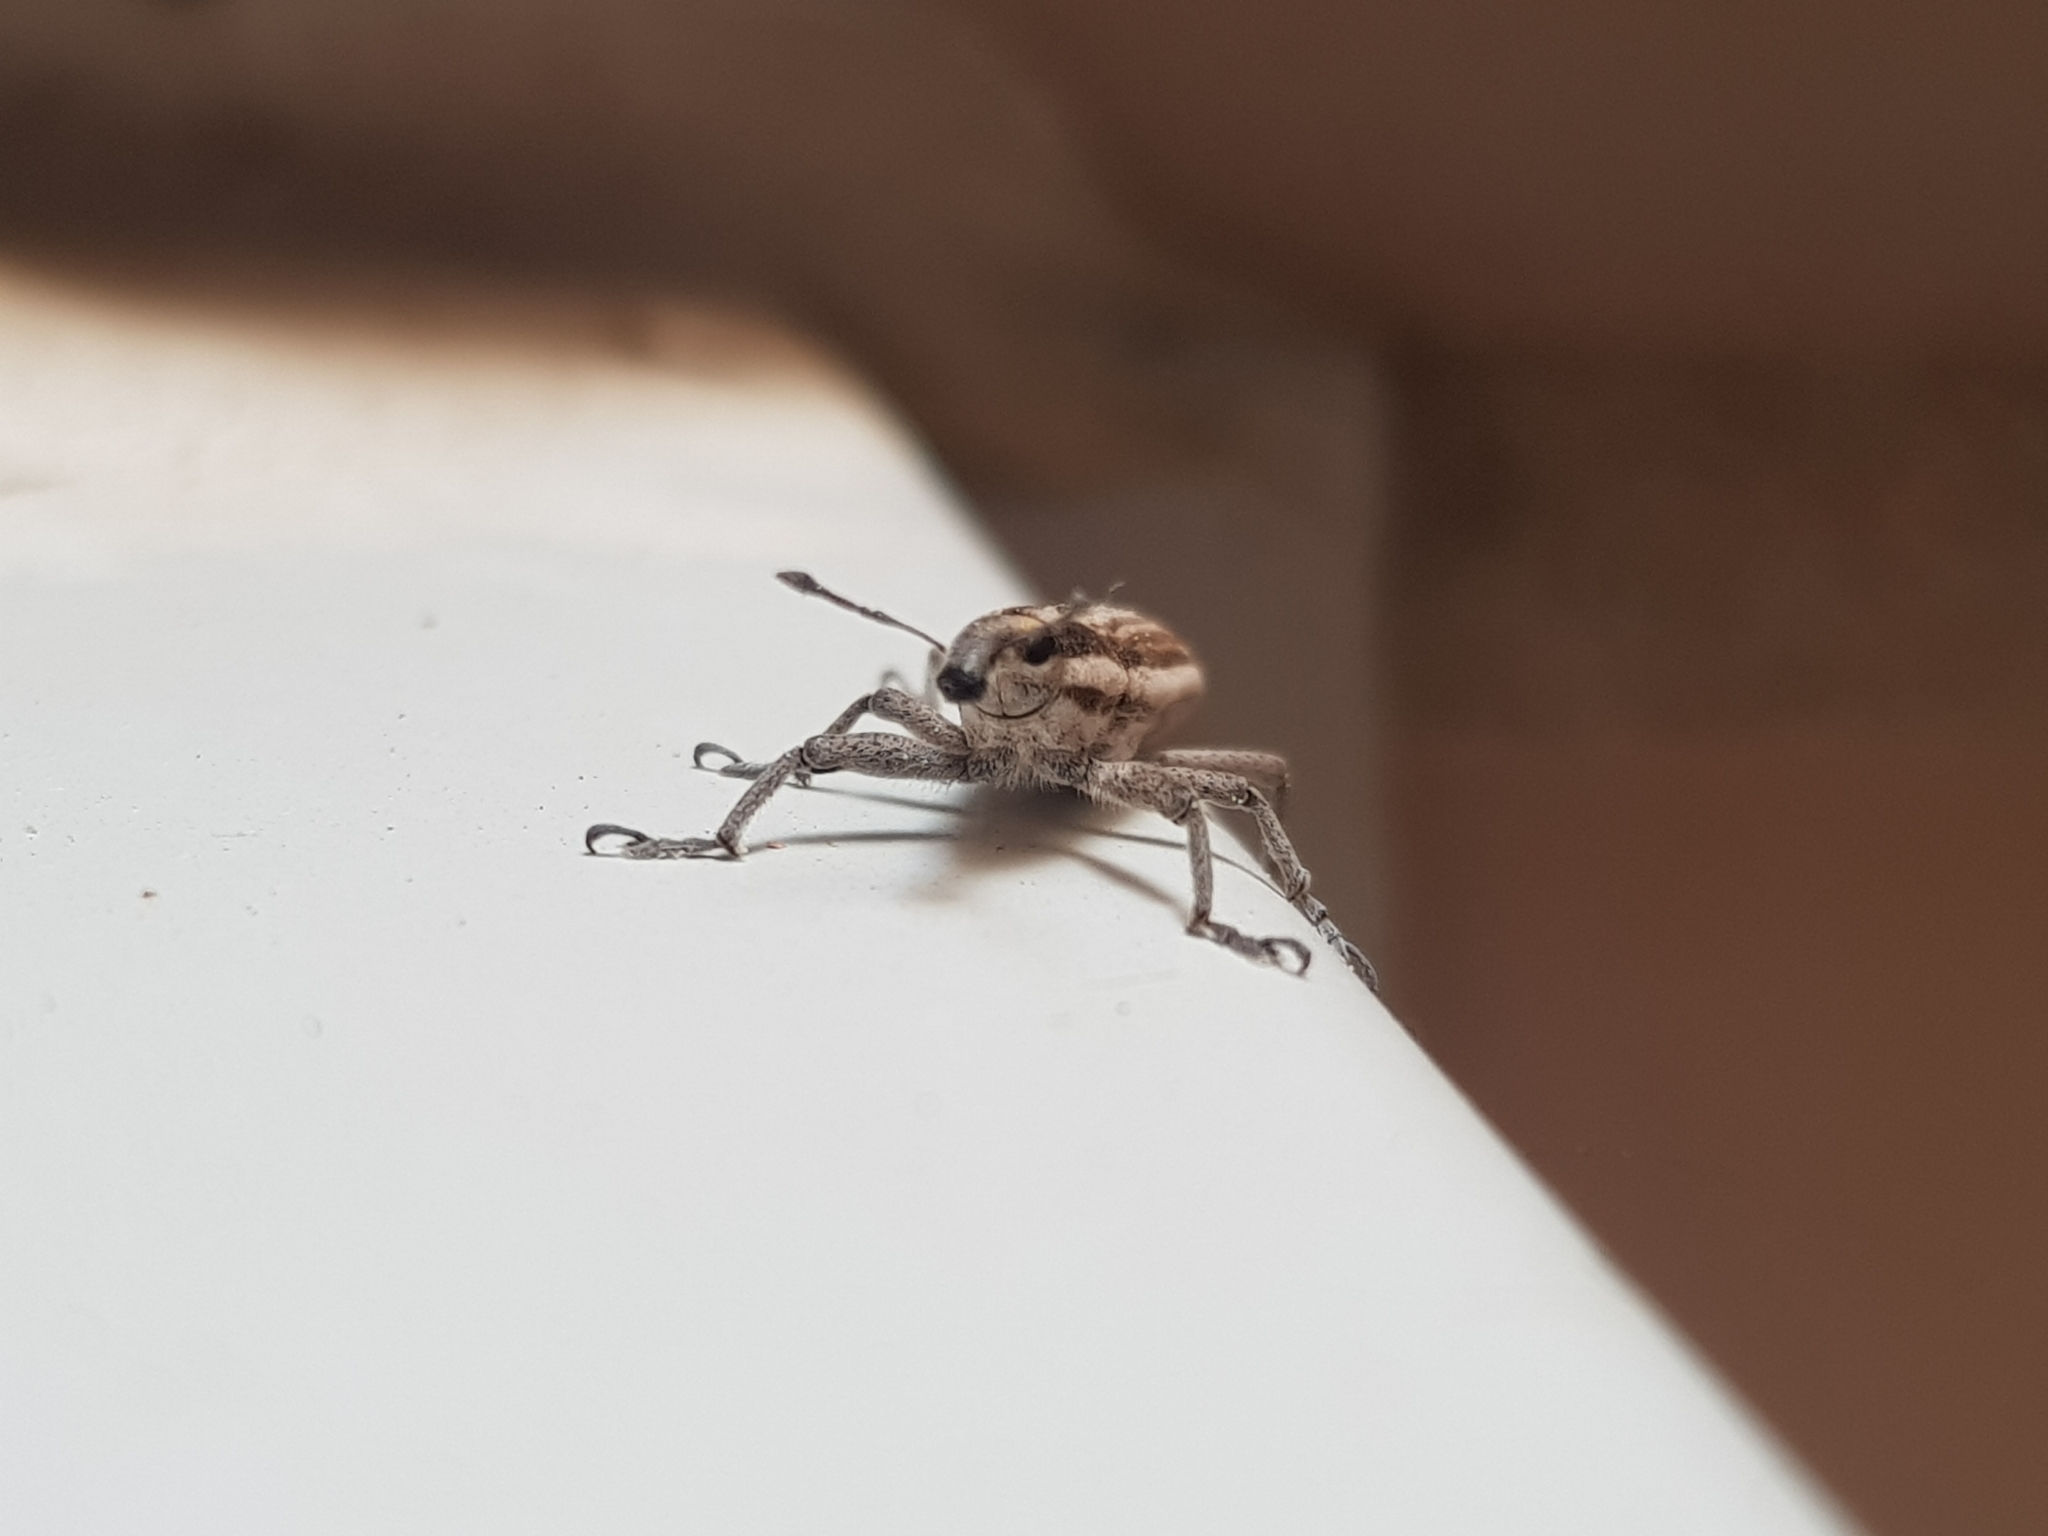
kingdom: Animalia
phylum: Arthropoda
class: Insecta
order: Coleoptera
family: Curculionidae
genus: Lixus
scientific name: Lixus anguinus
